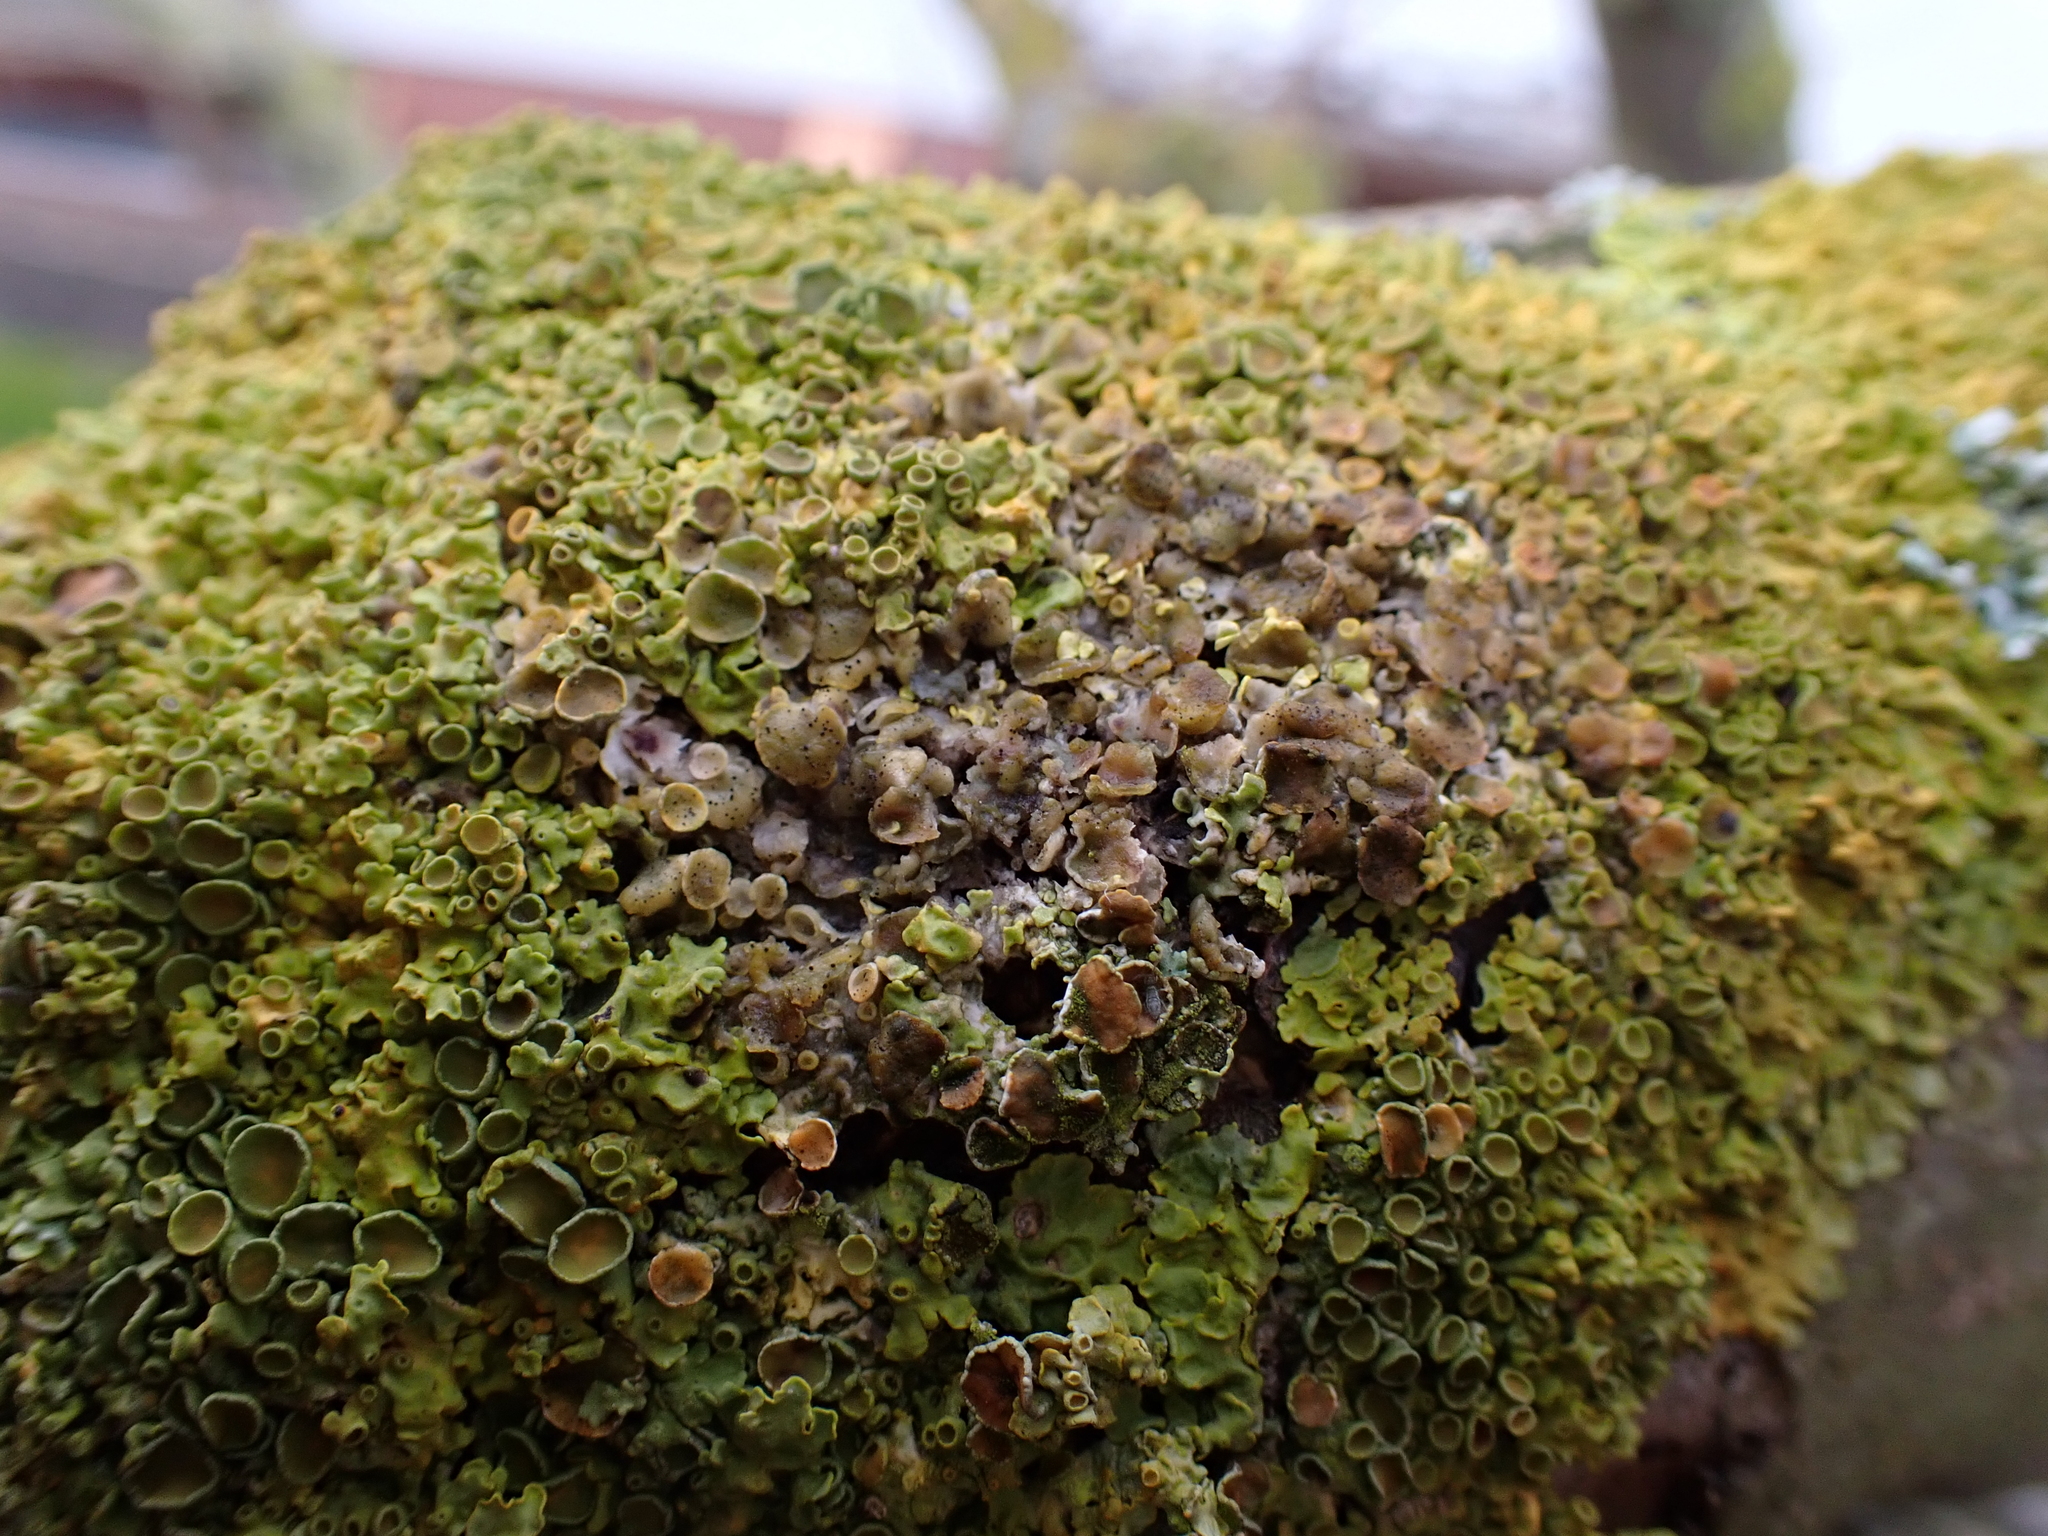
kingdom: Fungi
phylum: Ascomycota
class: Lecanoromycetes
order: Teloschistales
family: Teloschistaceae
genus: Xanthoria
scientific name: Xanthoria parietina
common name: Common orange lichen
